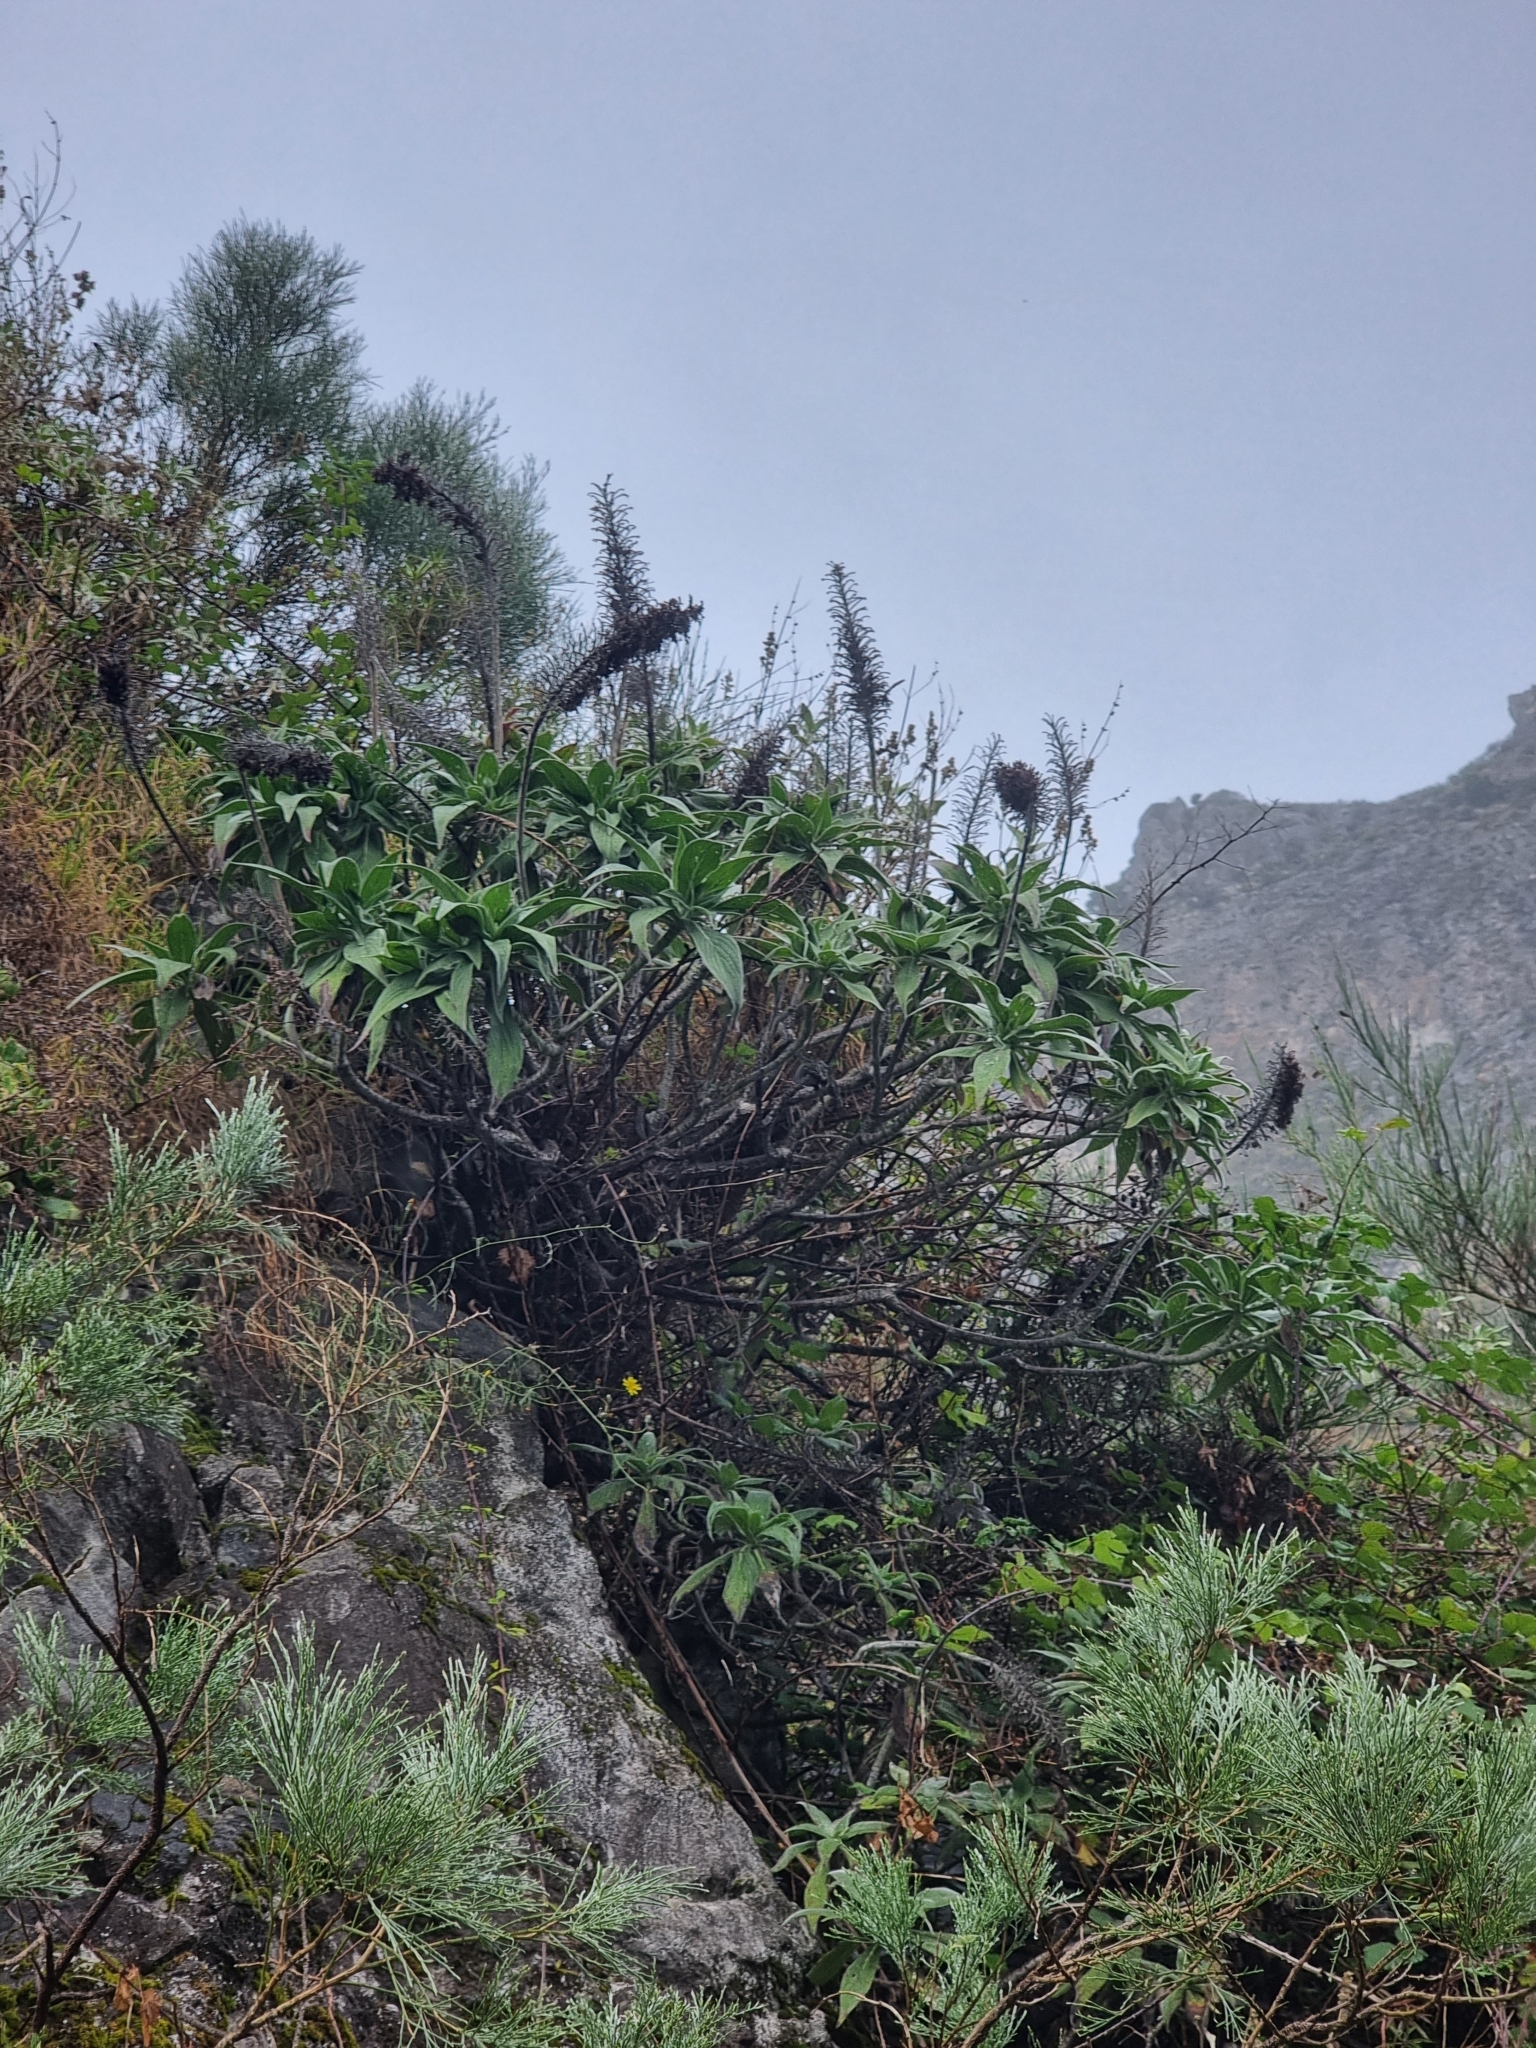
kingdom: Plantae
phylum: Tracheophyta
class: Magnoliopsida
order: Boraginales
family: Boraginaceae
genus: Echium
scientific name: Echium candicans
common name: Pride of madeira
